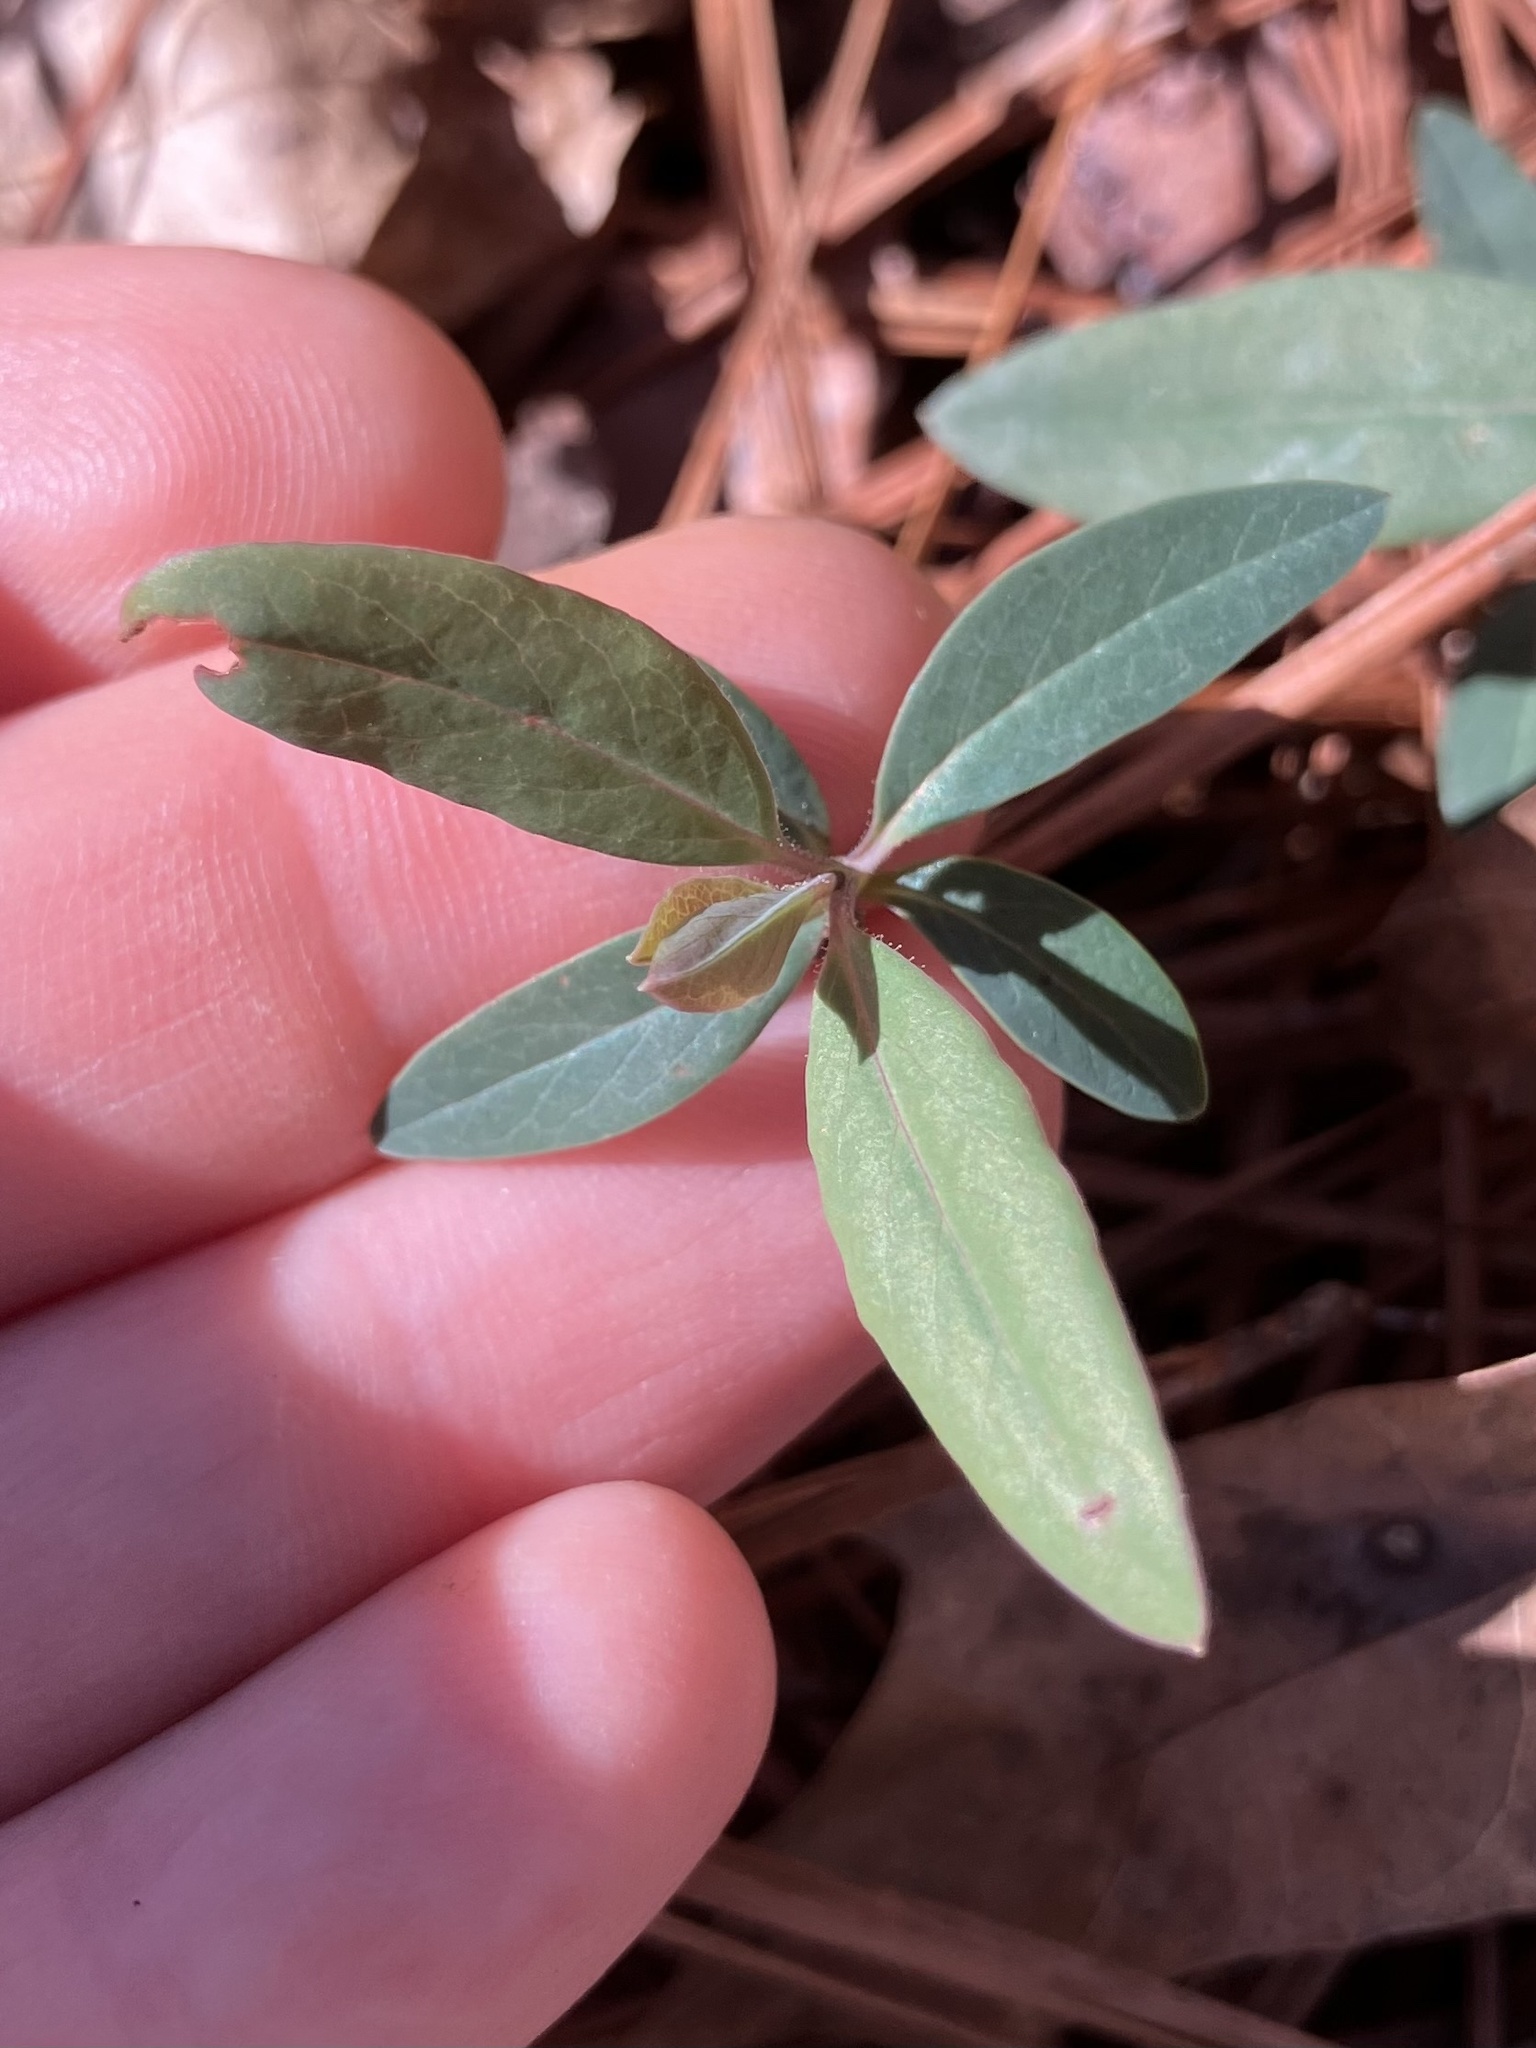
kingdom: Plantae
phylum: Tracheophyta
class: Magnoliopsida
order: Dipsacales
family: Caprifoliaceae
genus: Lonicera
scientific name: Lonicera sempervirens
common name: Coral honeysuckle
